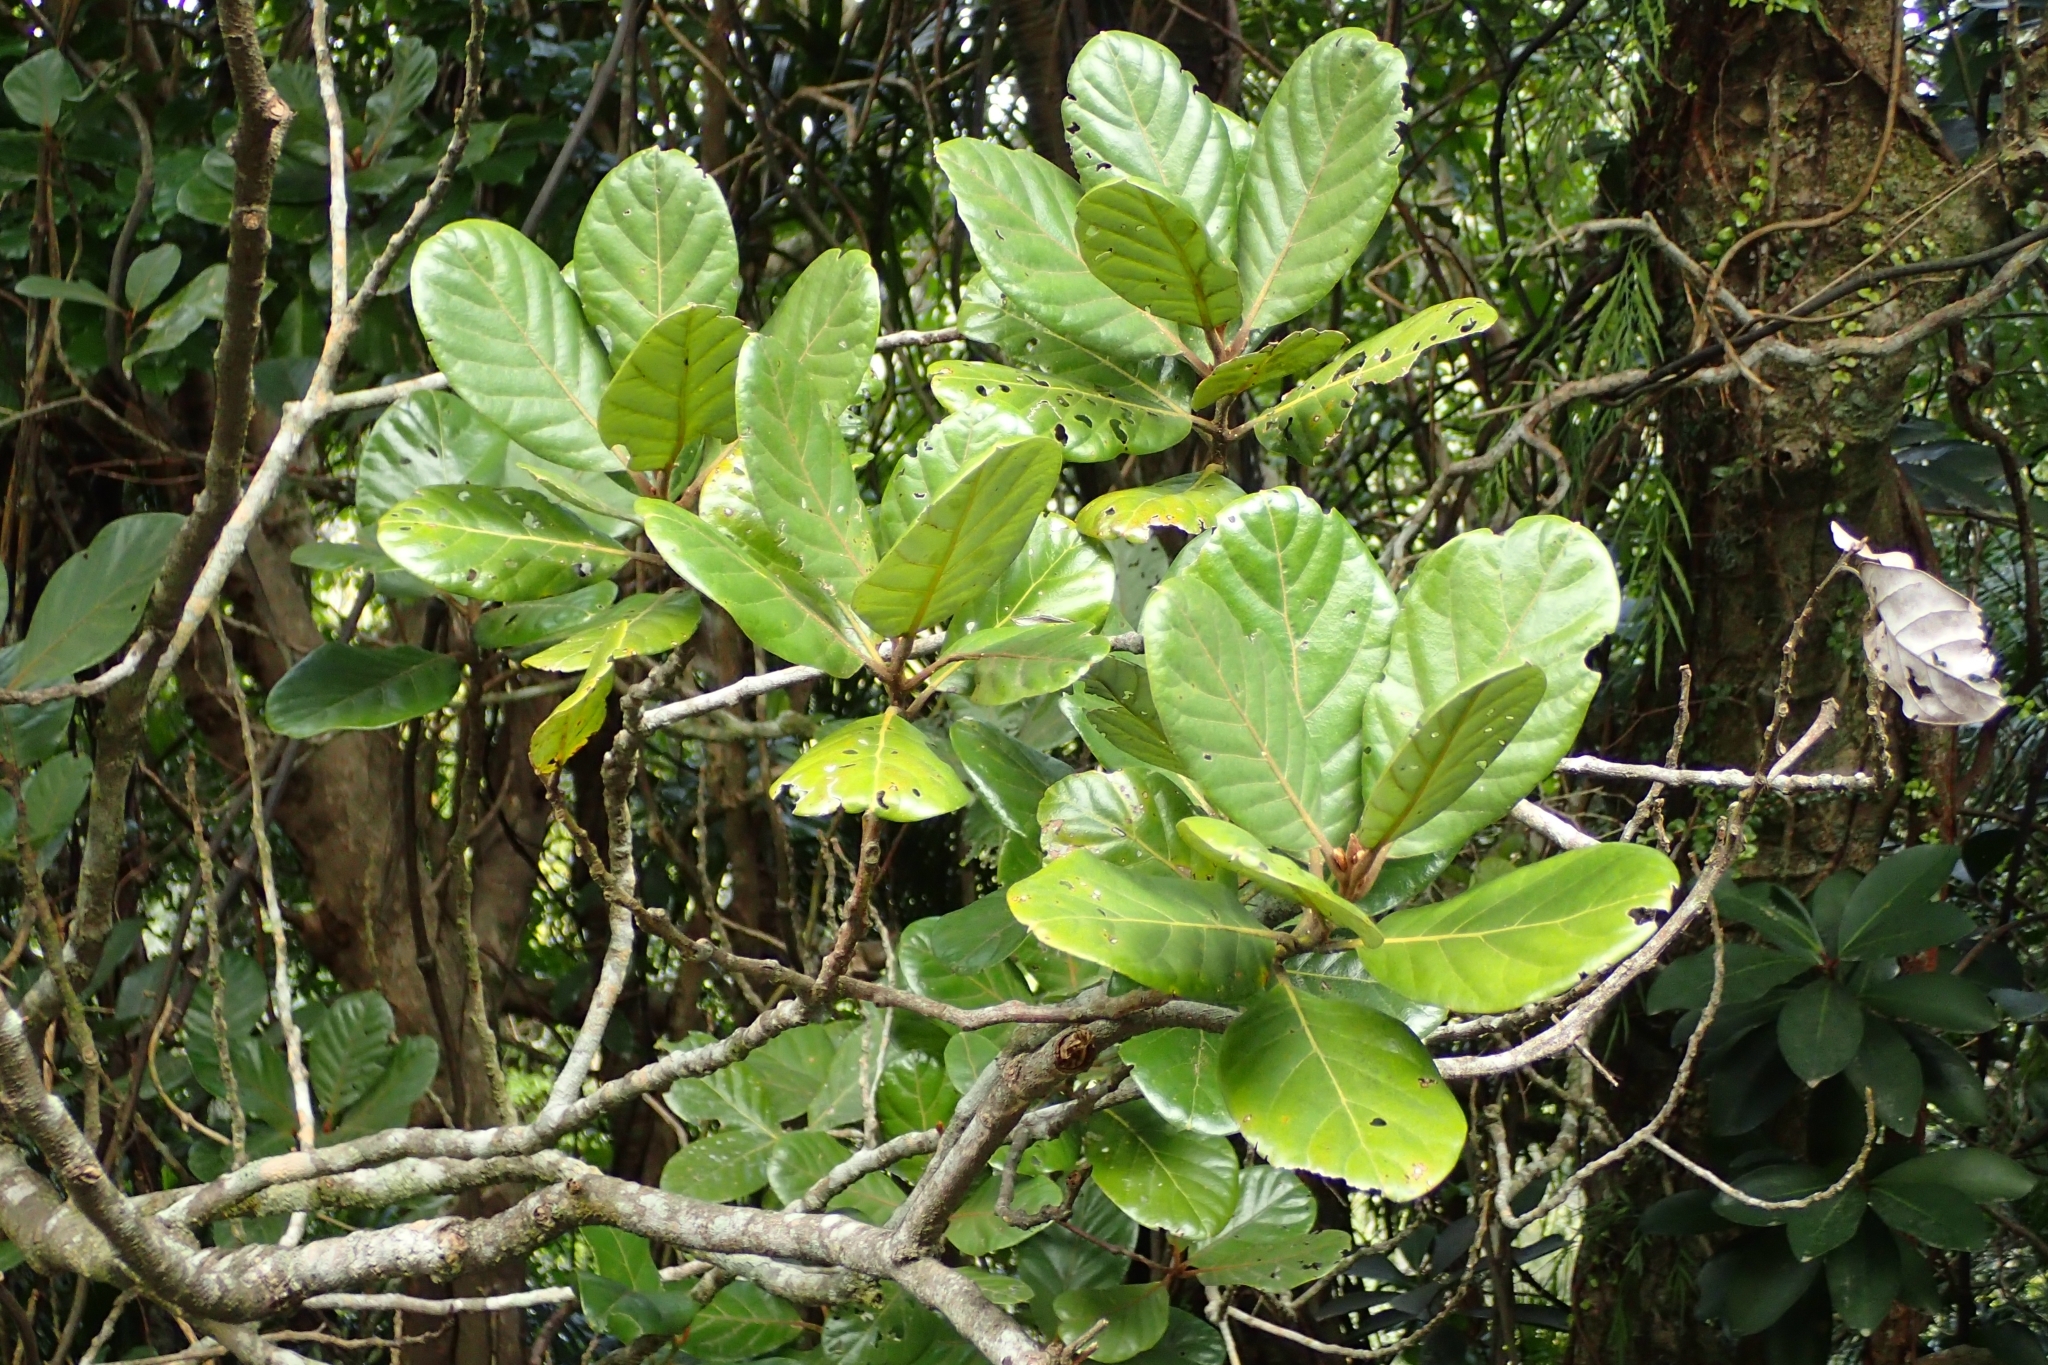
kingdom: Plantae
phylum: Tracheophyta
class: Magnoliopsida
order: Laurales
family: Lauraceae
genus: Beilschmiedia
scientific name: Beilschmiedia tarairi
